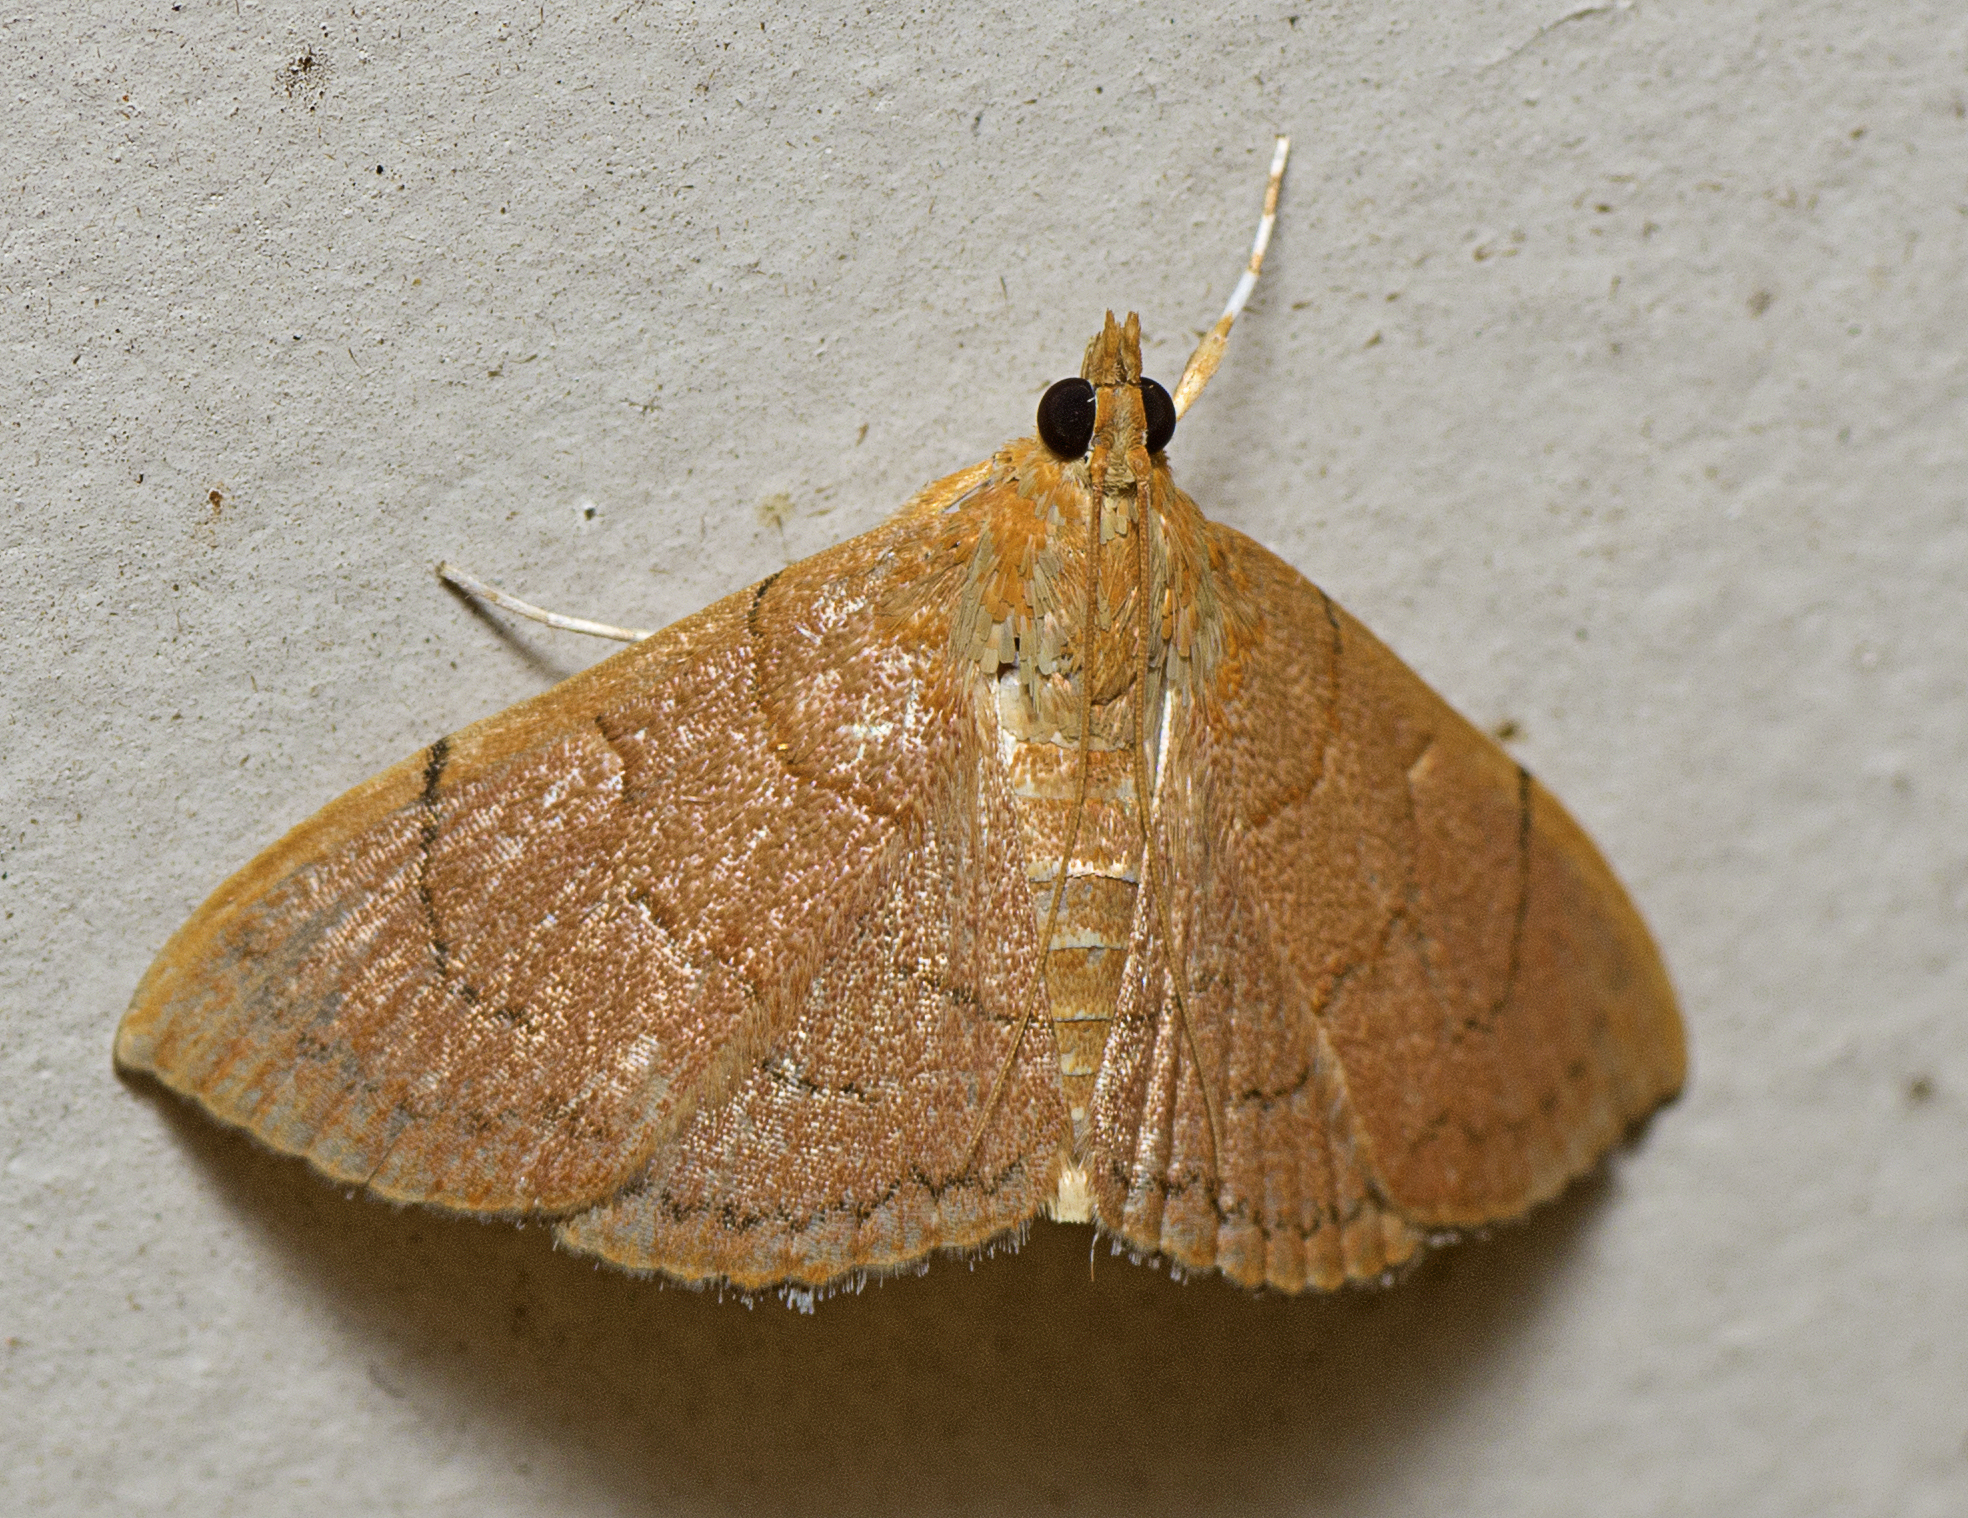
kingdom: Animalia
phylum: Arthropoda
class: Insecta
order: Lepidoptera
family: Crambidae
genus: Hyalobathra
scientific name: Hyalobathra
